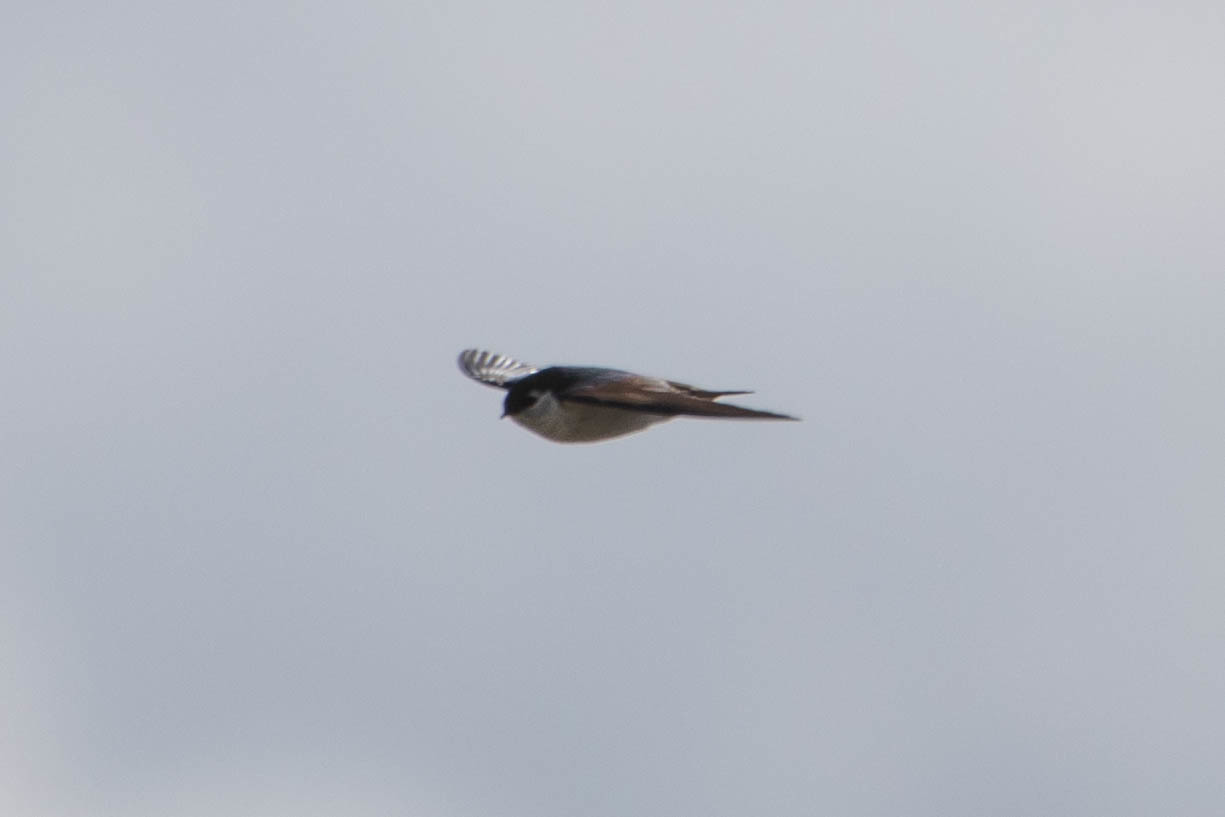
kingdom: Animalia
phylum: Chordata
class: Aves
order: Passeriformes
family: Hirundinidae
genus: Tachycineta
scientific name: Tachycineta thalassina
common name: Violet-green swallow
